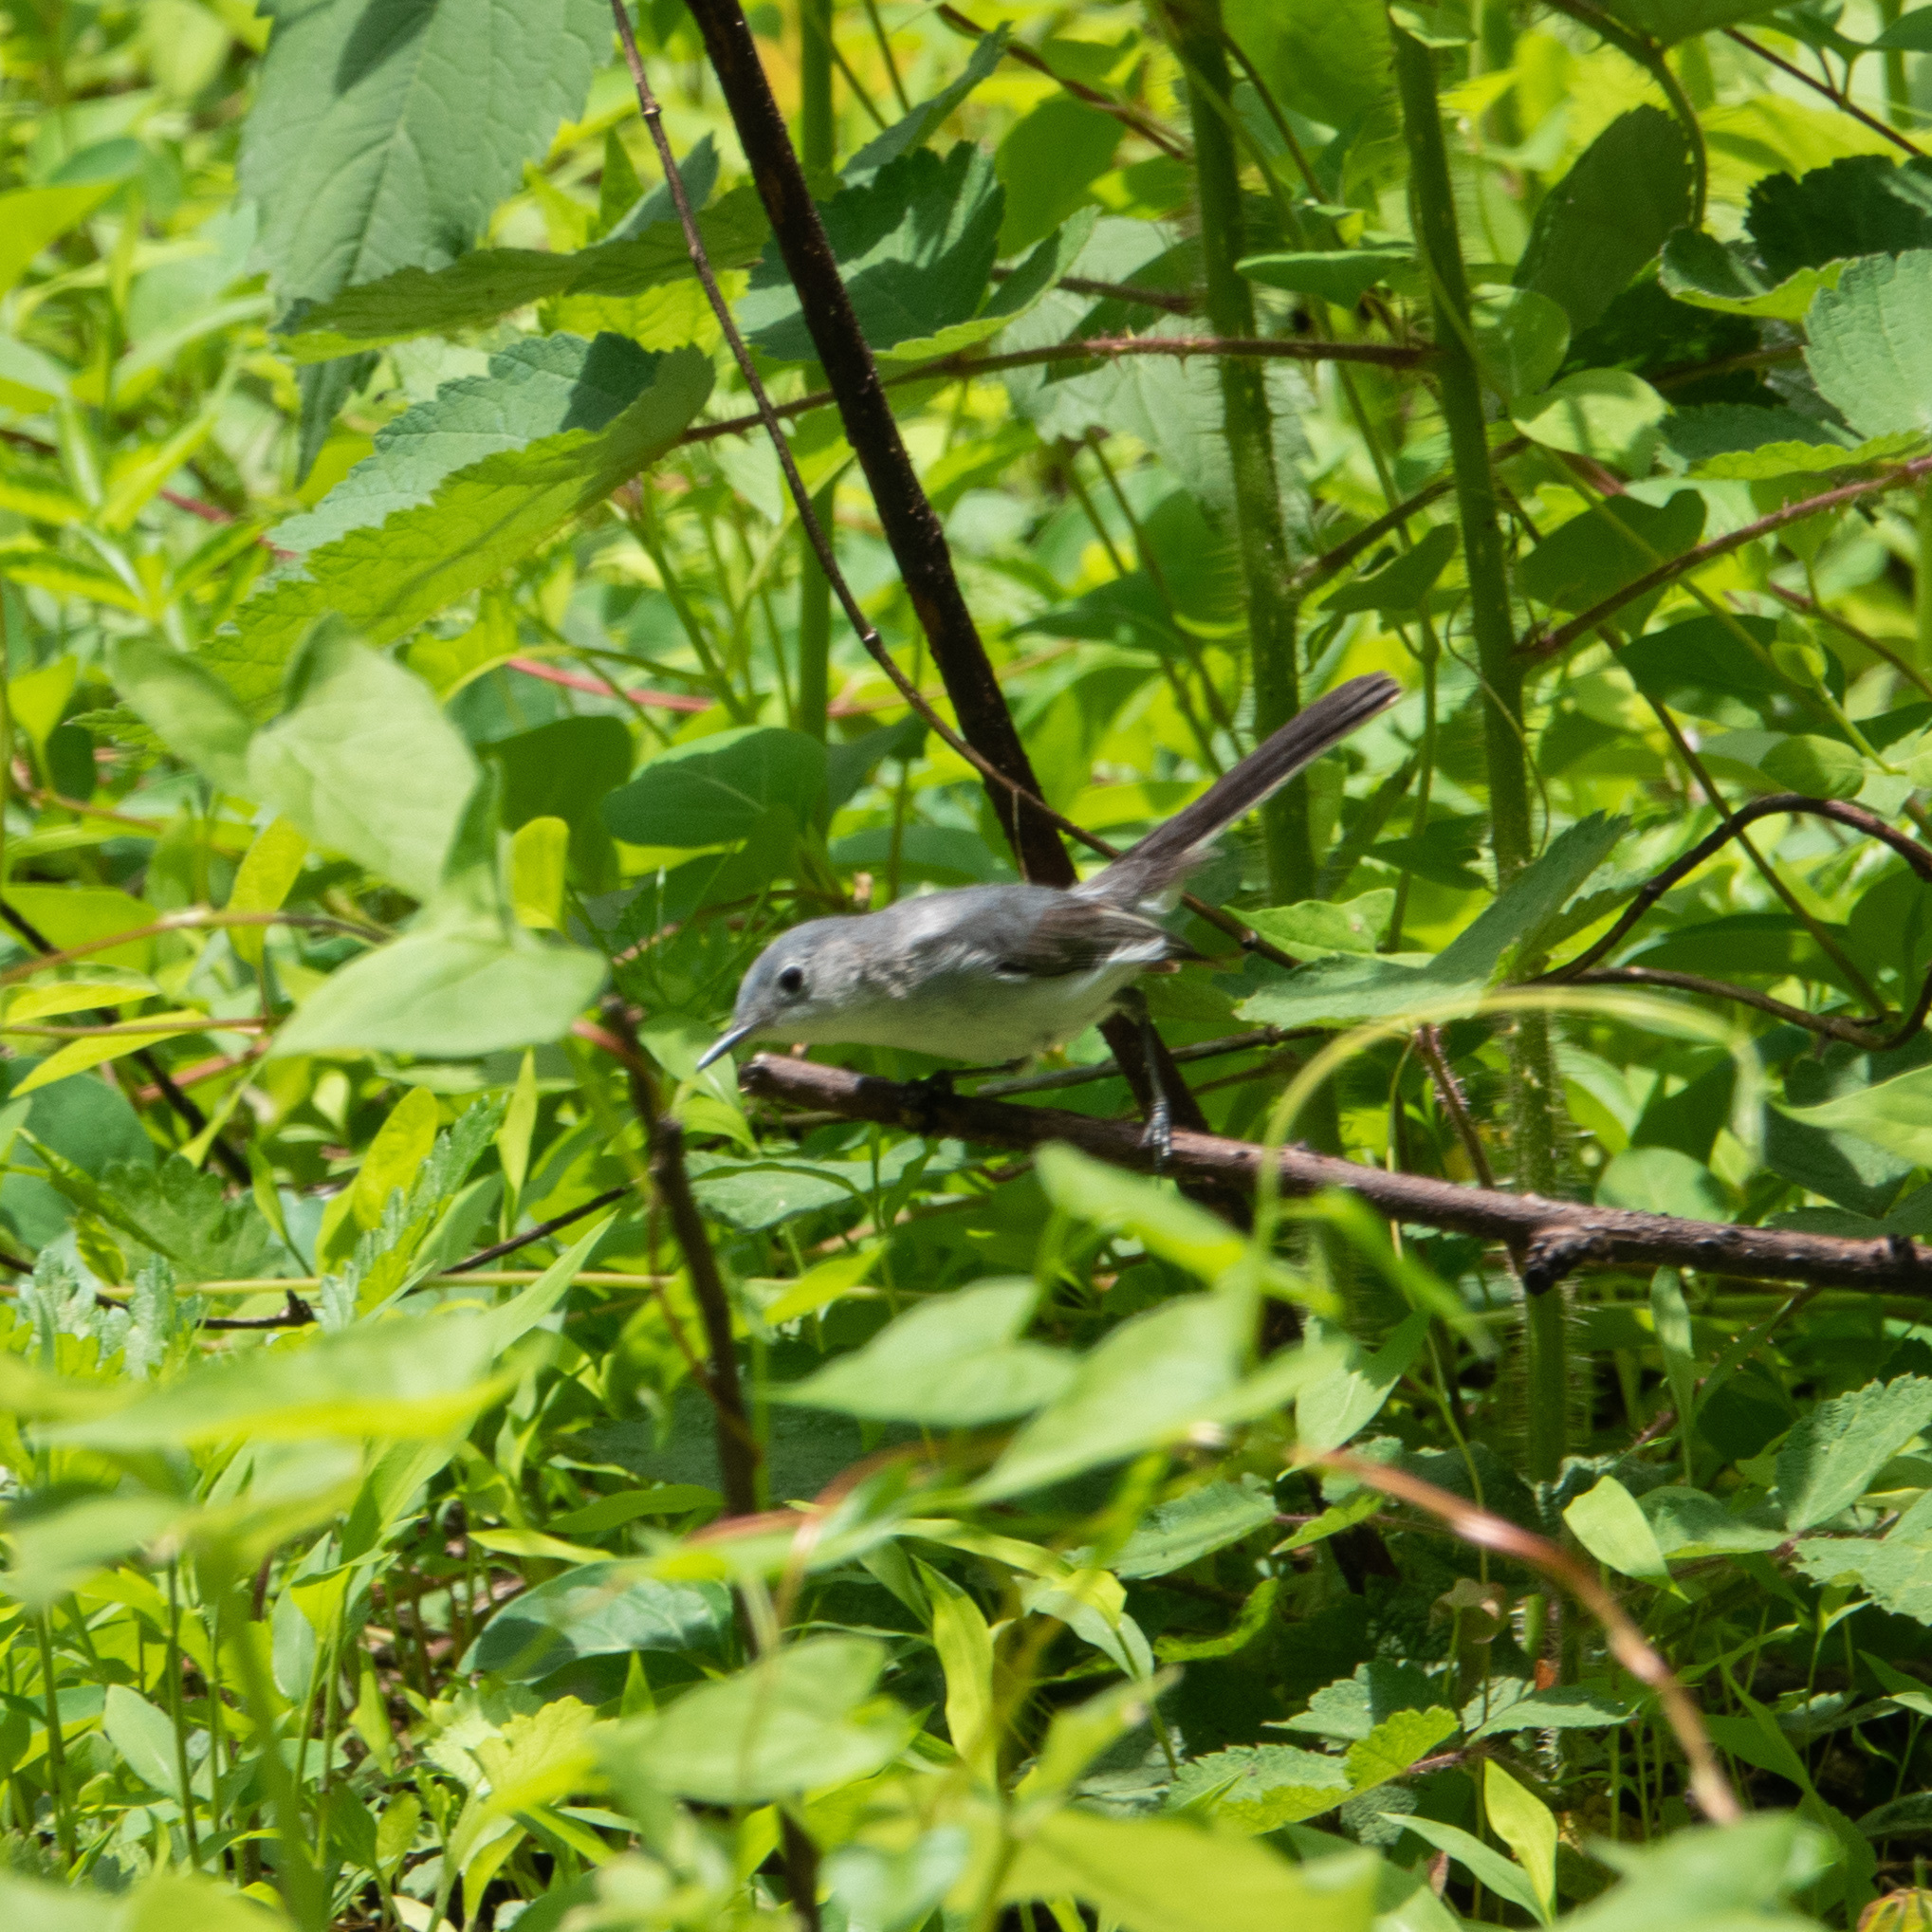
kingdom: Animalia
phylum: Chordata
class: Aves
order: Passeriformes
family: Polioptilidae
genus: Polioptila
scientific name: Polioptila caerulea
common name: Blue-gray gnatcatcher
